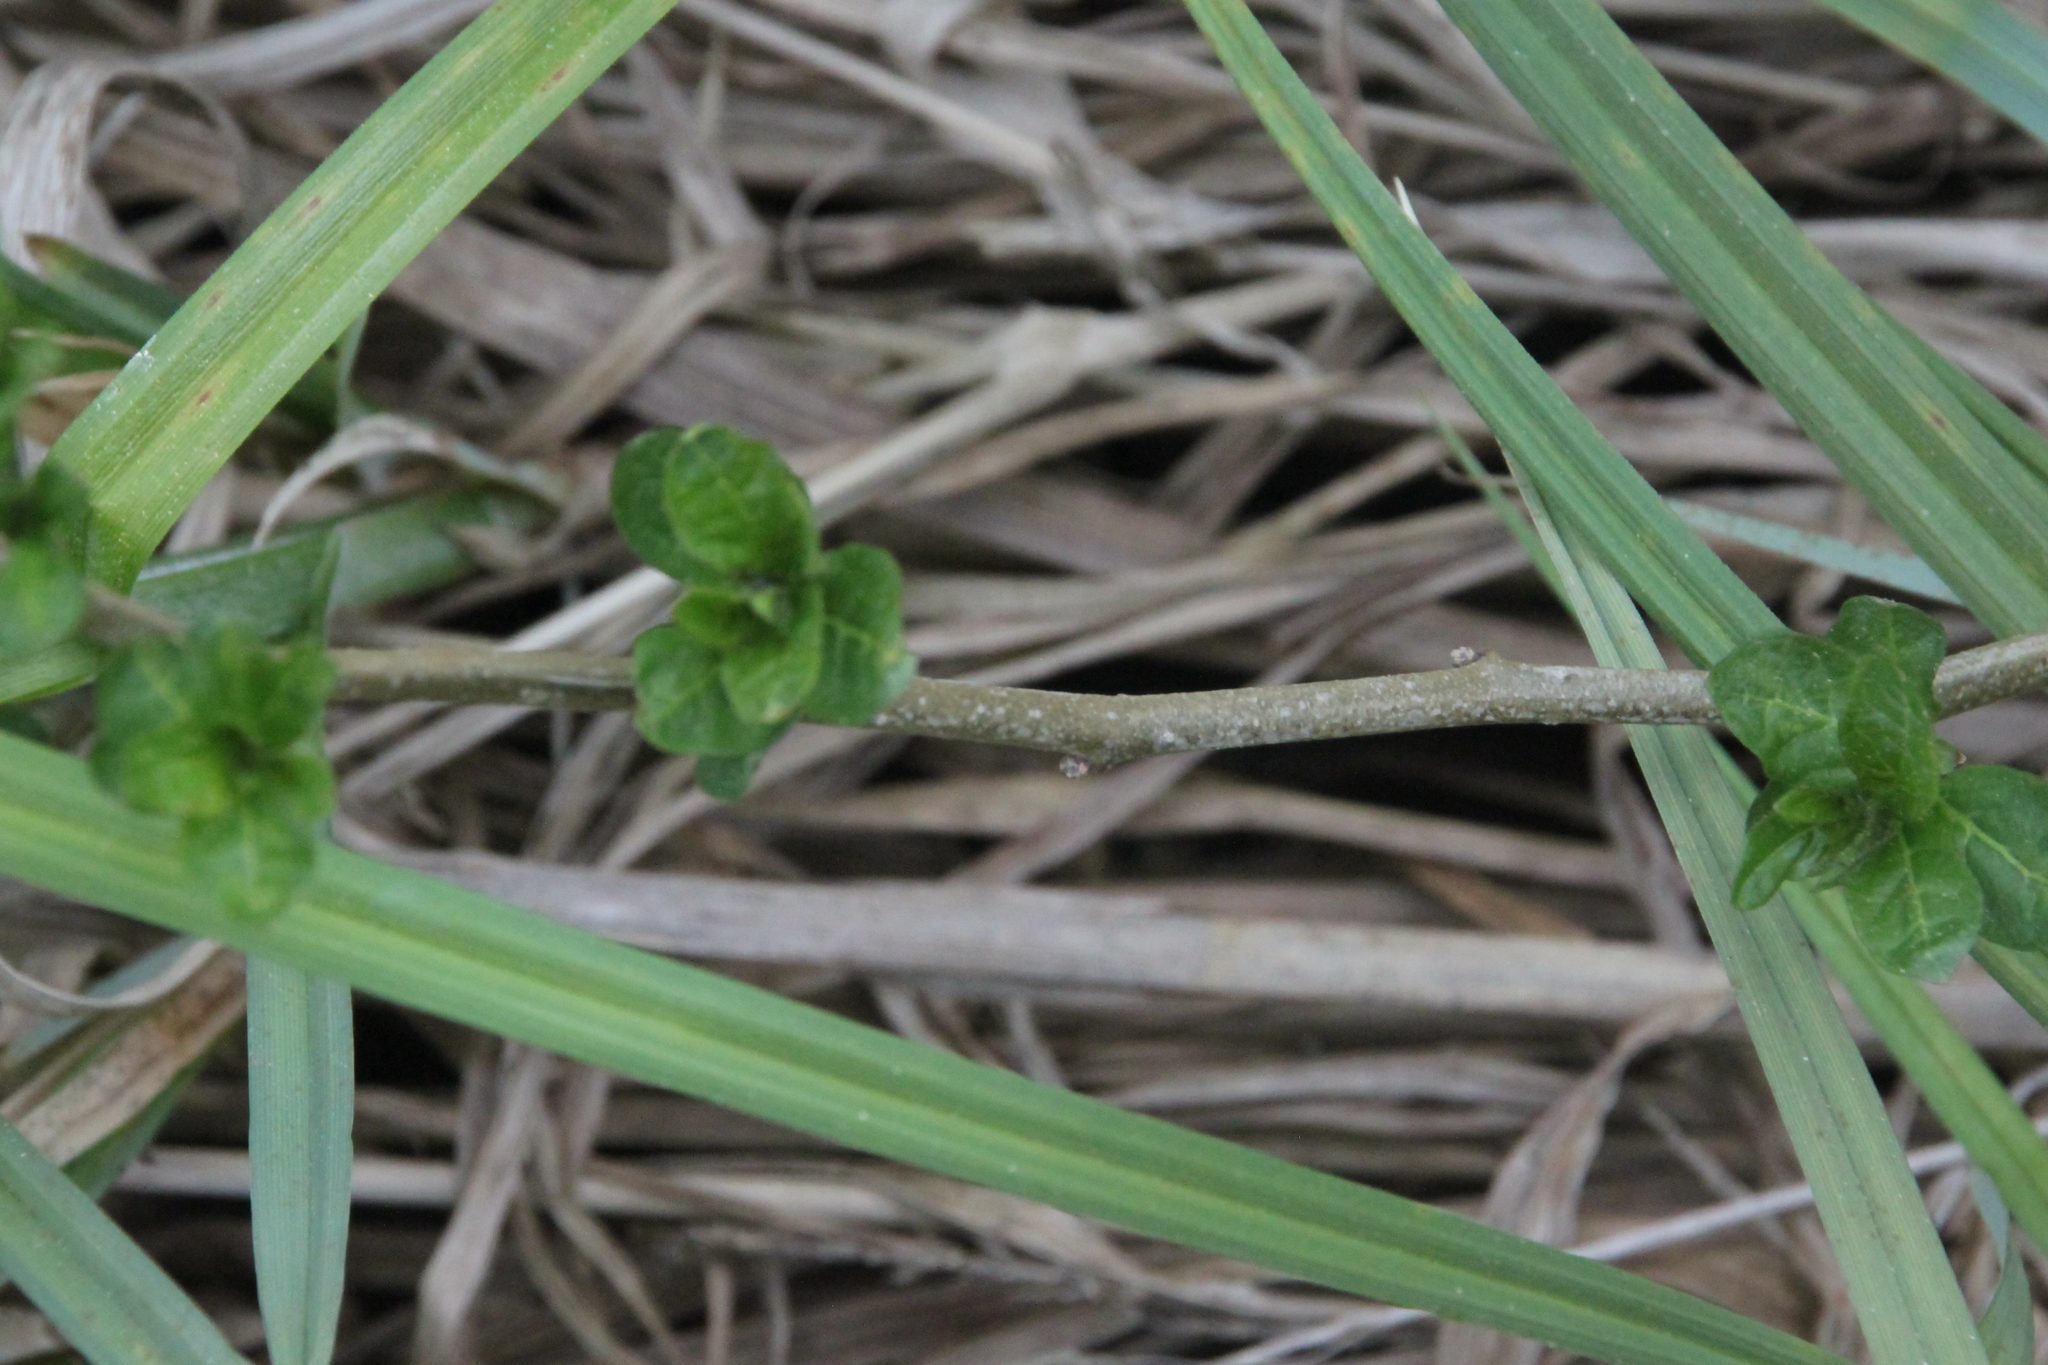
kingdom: Plantae
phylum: Tracheophyta
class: Magnoliopsida
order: Solanales
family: Solanaceae
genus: Solanum
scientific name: Solanum dulcamara
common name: Climbing nightshade
